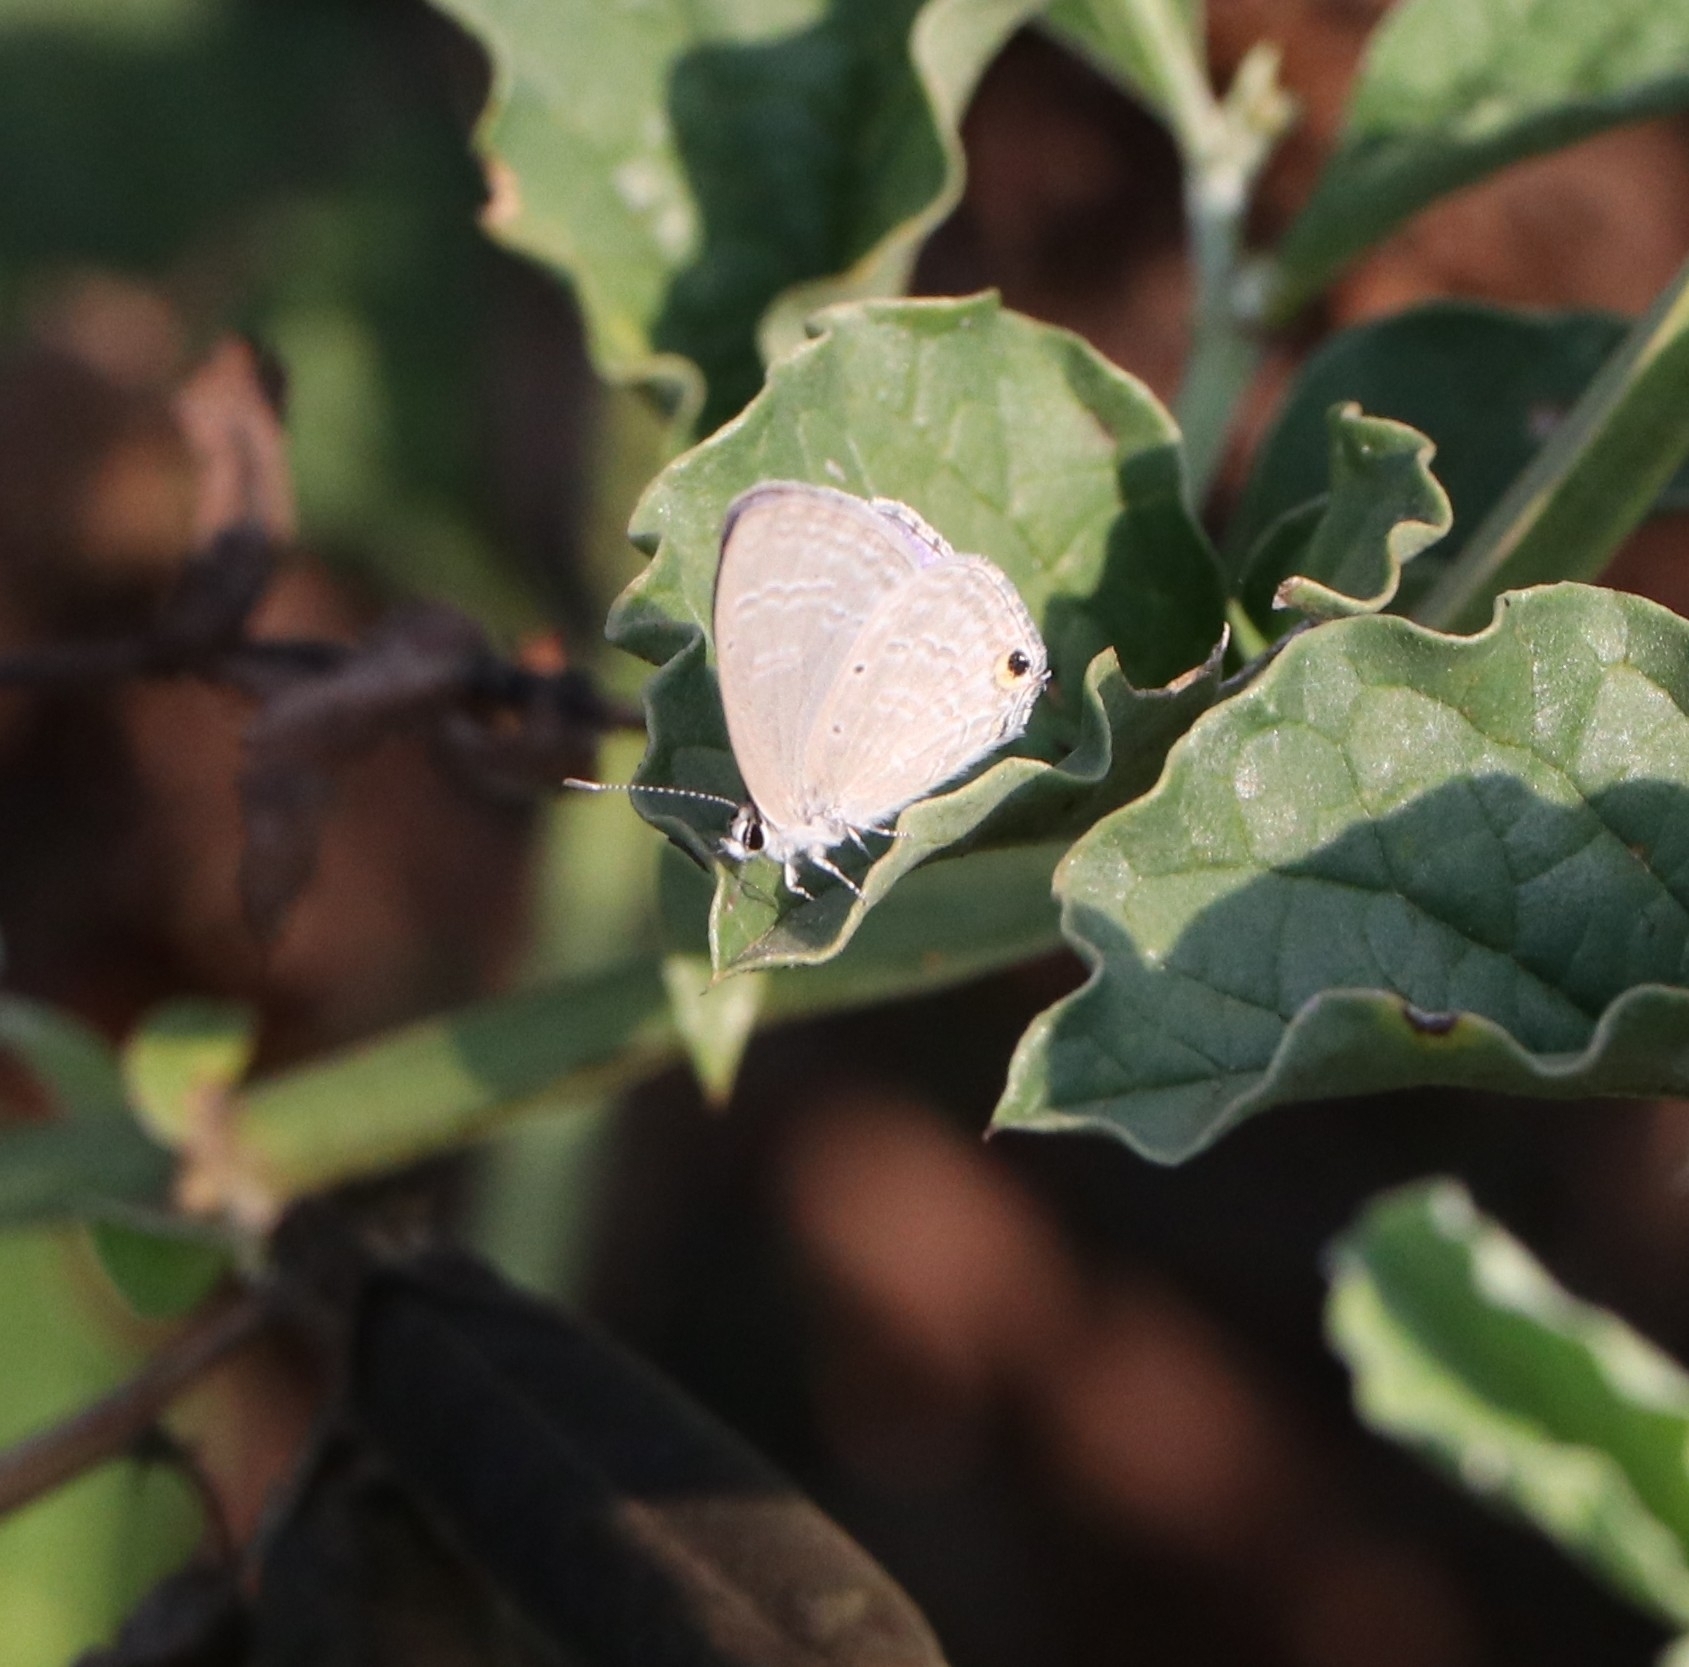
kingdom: Animalia
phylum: Arthropoda
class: Insecta
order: Lepidoptera
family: Lycaenidae
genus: Catochrysops
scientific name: Catochrysops strabo
